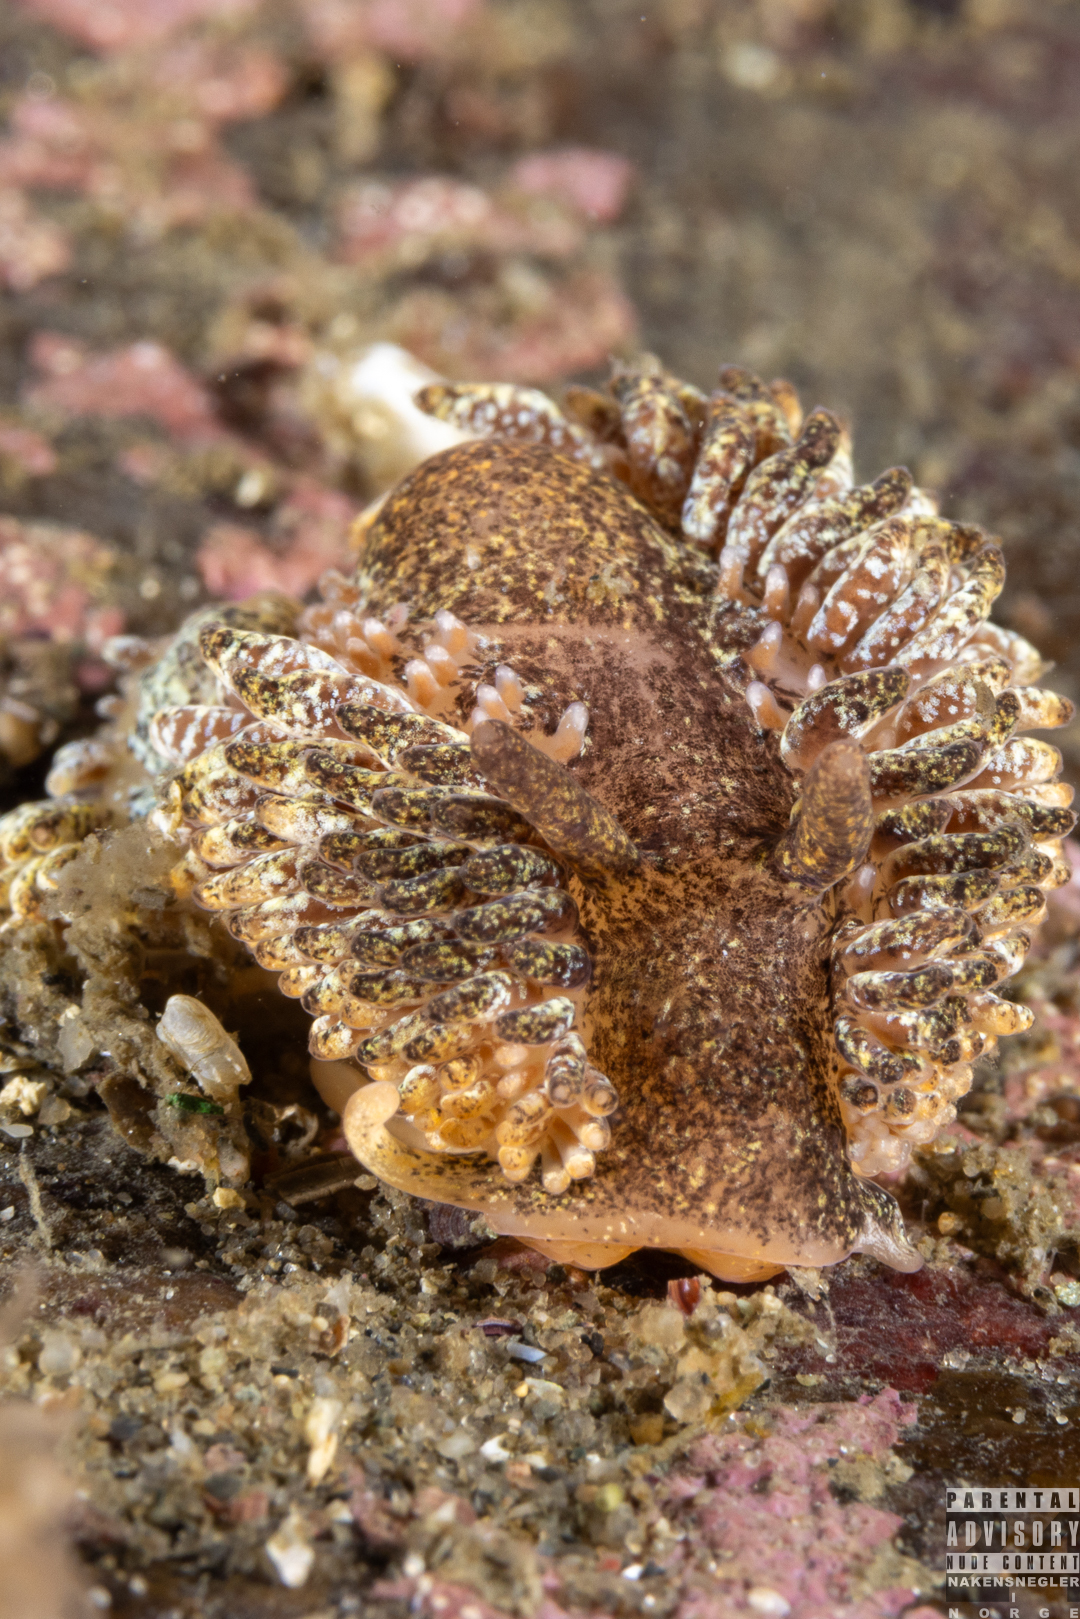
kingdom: Animalia
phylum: Mollusca
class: Gastropoda
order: Nudibranchia
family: Aeolidiidae
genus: Aeolidia
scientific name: Aeolidia papillosa
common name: Common grey sea slug
